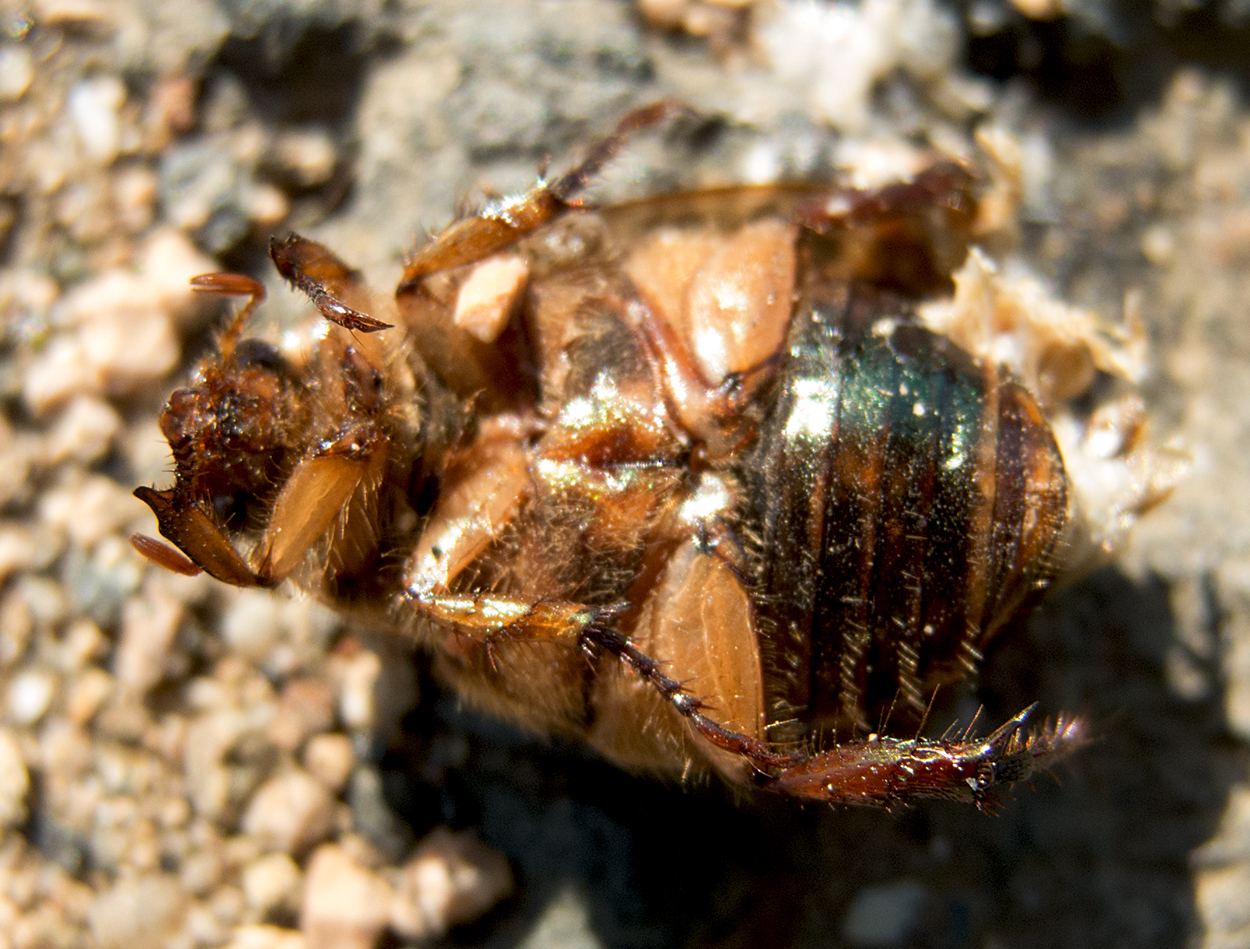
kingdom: Animalia
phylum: Arthropoda
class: Insecta
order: Coleoptera
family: Scarabaeidae
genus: Anomala
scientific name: Anomala dubia
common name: Dune chafer
